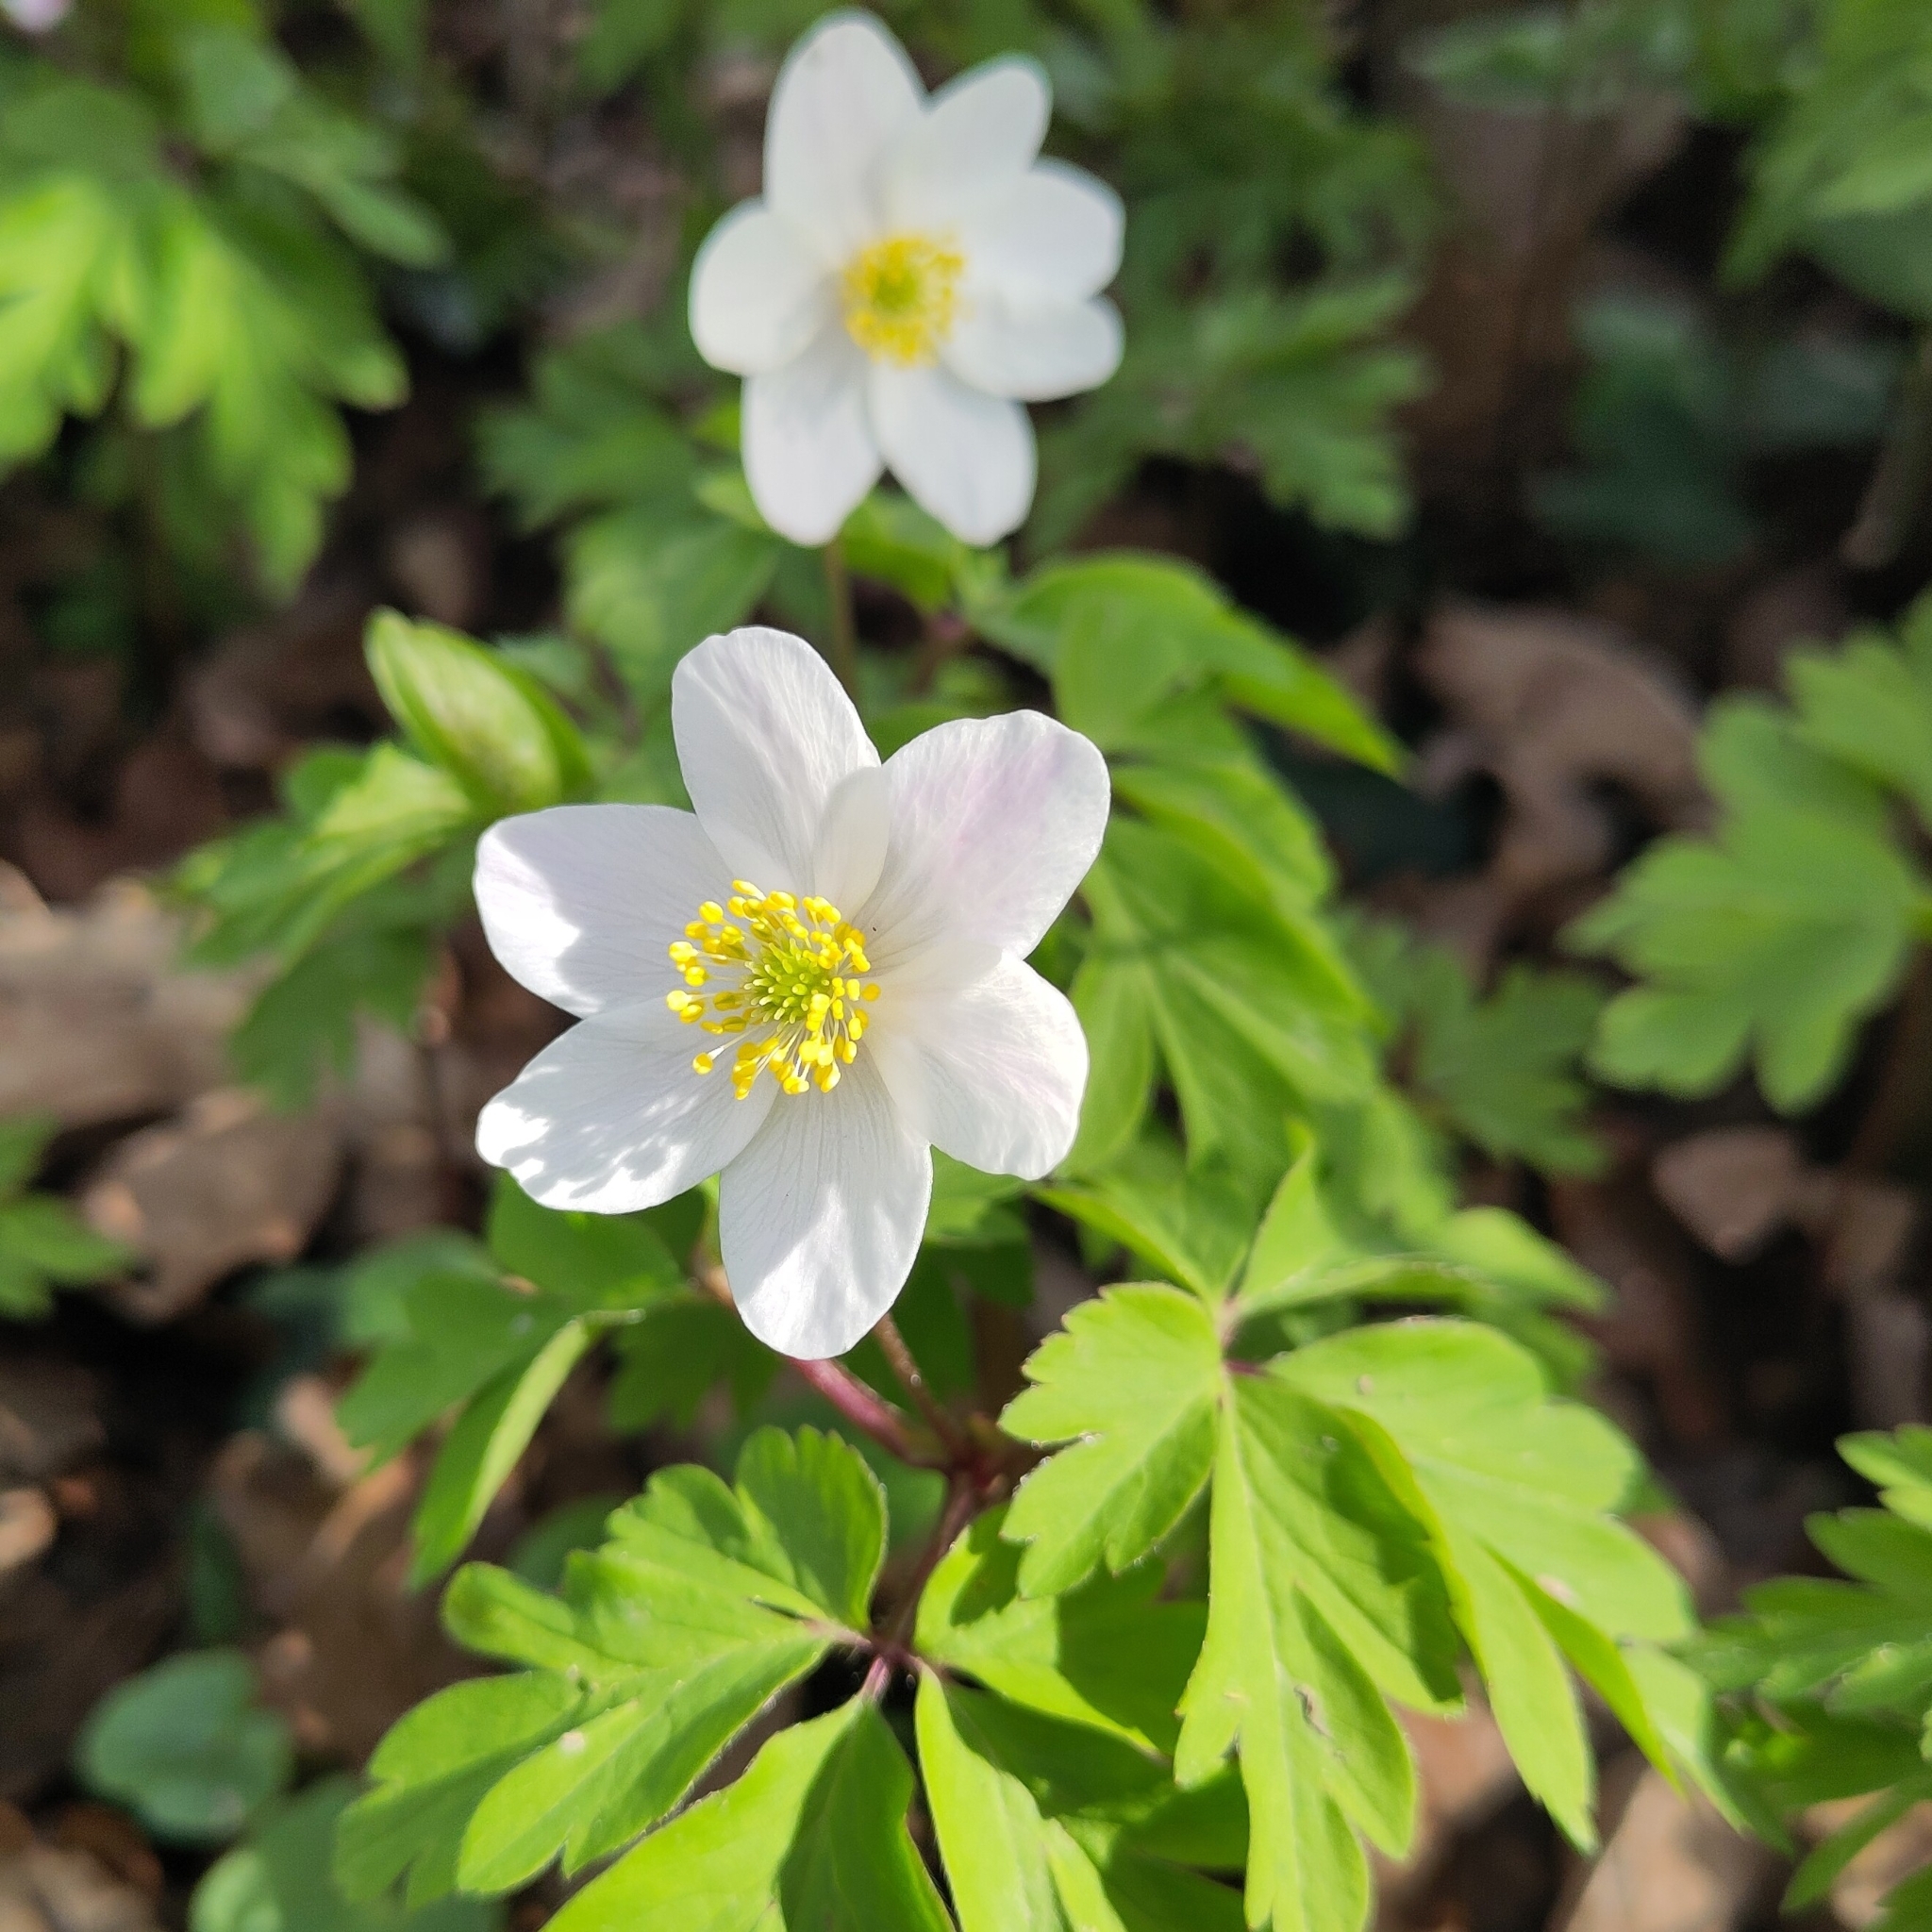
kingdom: Plantae
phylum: Tracheophyta
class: Magnoliopsida
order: Ranunculales
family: Ranunculaceae
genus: Anemone
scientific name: Anemone nemorosa
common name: Wood anemone
